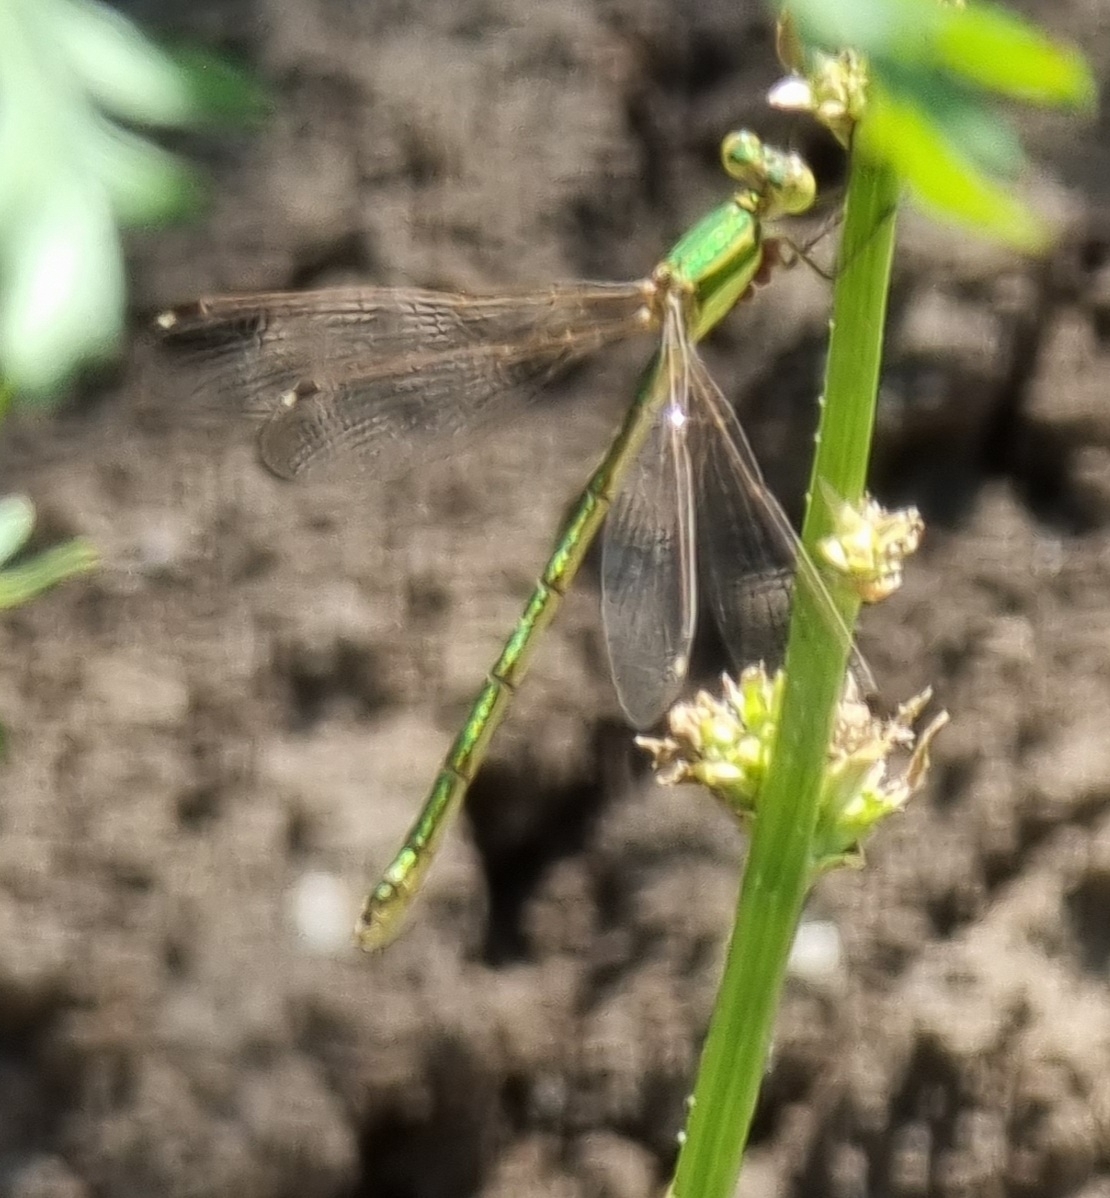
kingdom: Animalia
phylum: Arthropoda
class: Insecta
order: Odonata
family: Lestidae
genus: Lestes
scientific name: Lestes barbarus
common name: Migrant spreadwing
